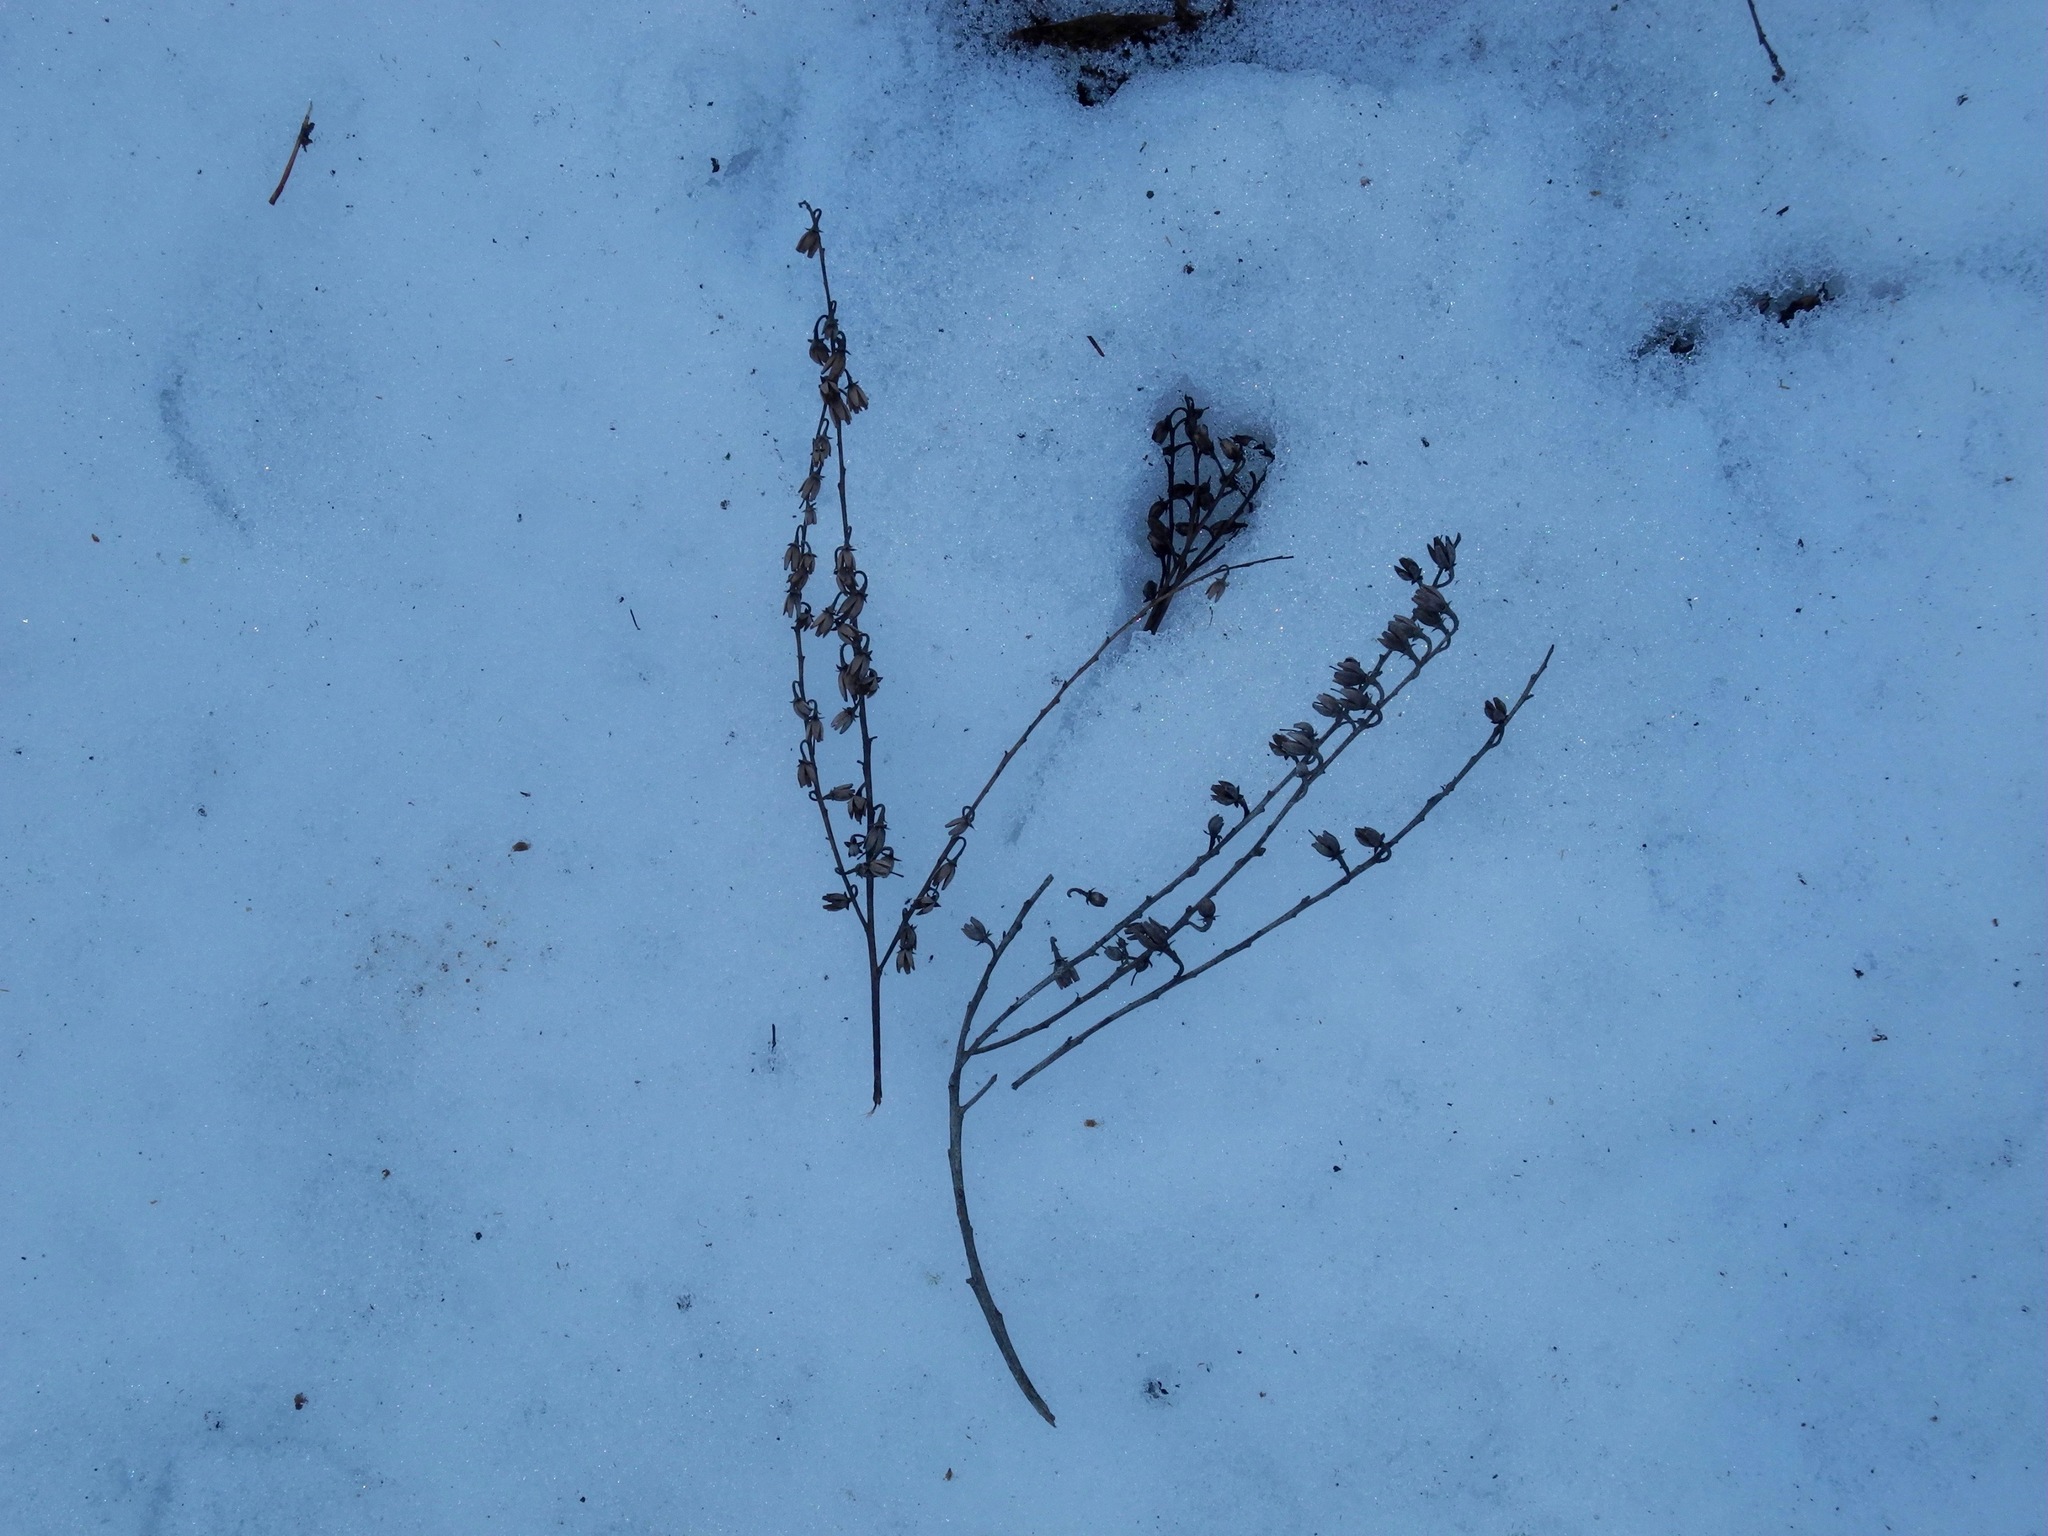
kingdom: Plantae
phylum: Tracheophyta
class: Magnoliopsida
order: Ericales
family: Ericaceae
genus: Oxydendrum
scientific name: Oxydendrum arboreum
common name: Sourwood
